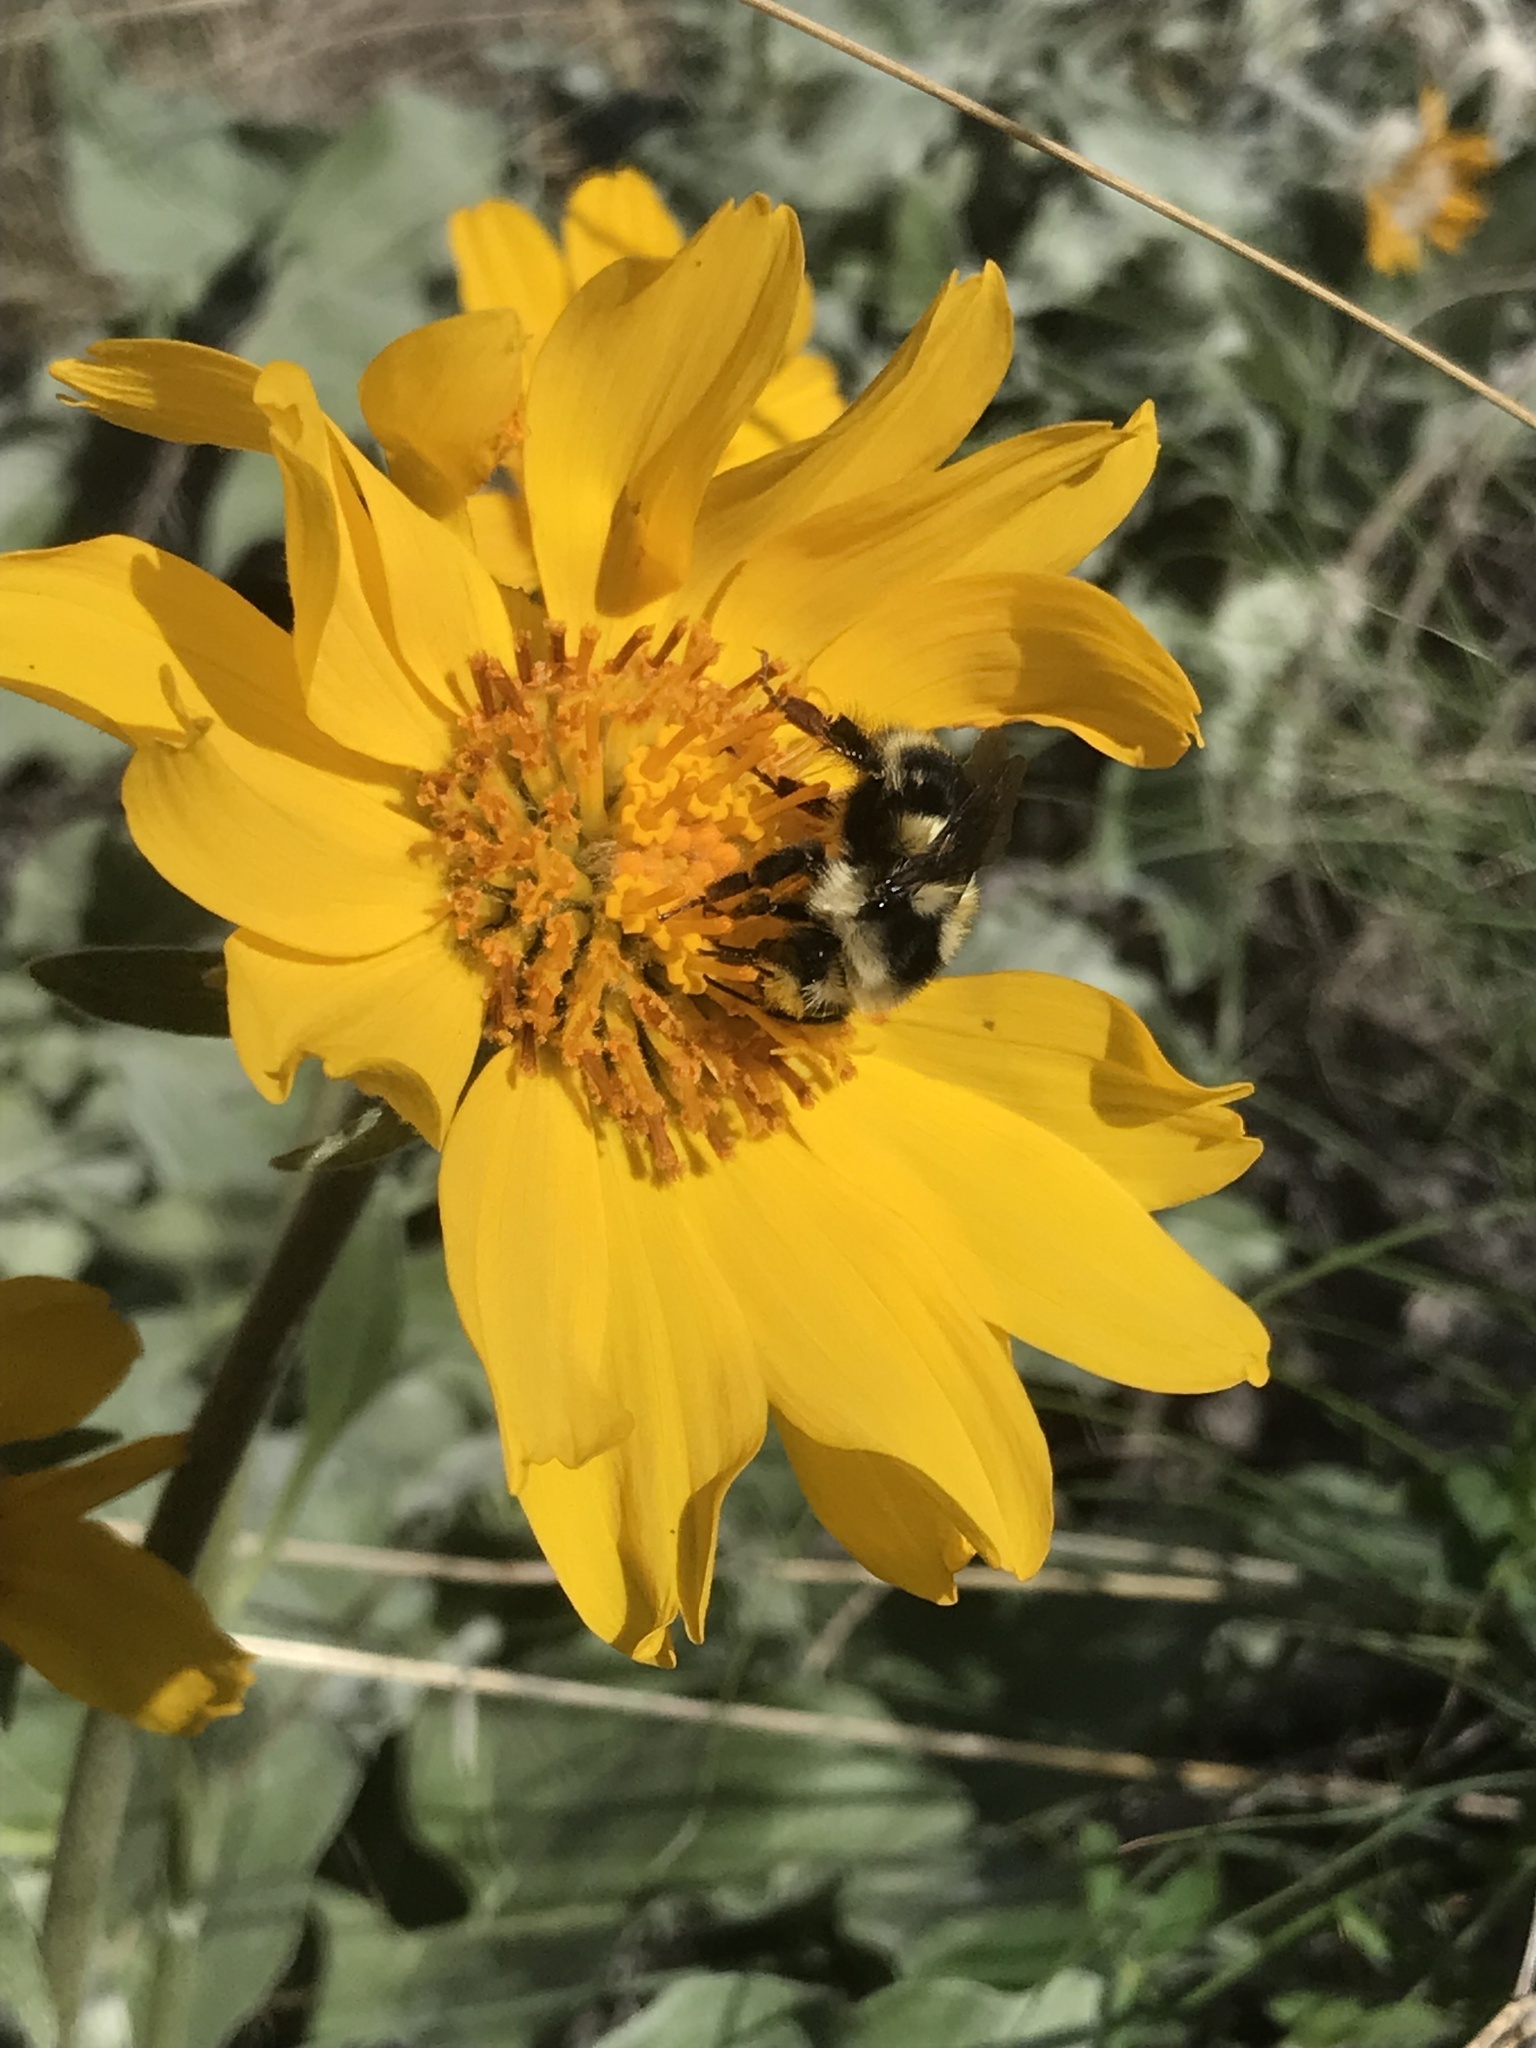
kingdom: Animalia
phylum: Arthropoda
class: Insecta
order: Hymenoptera
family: Apidae
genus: Bombus
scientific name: Bombus vancouverensis
